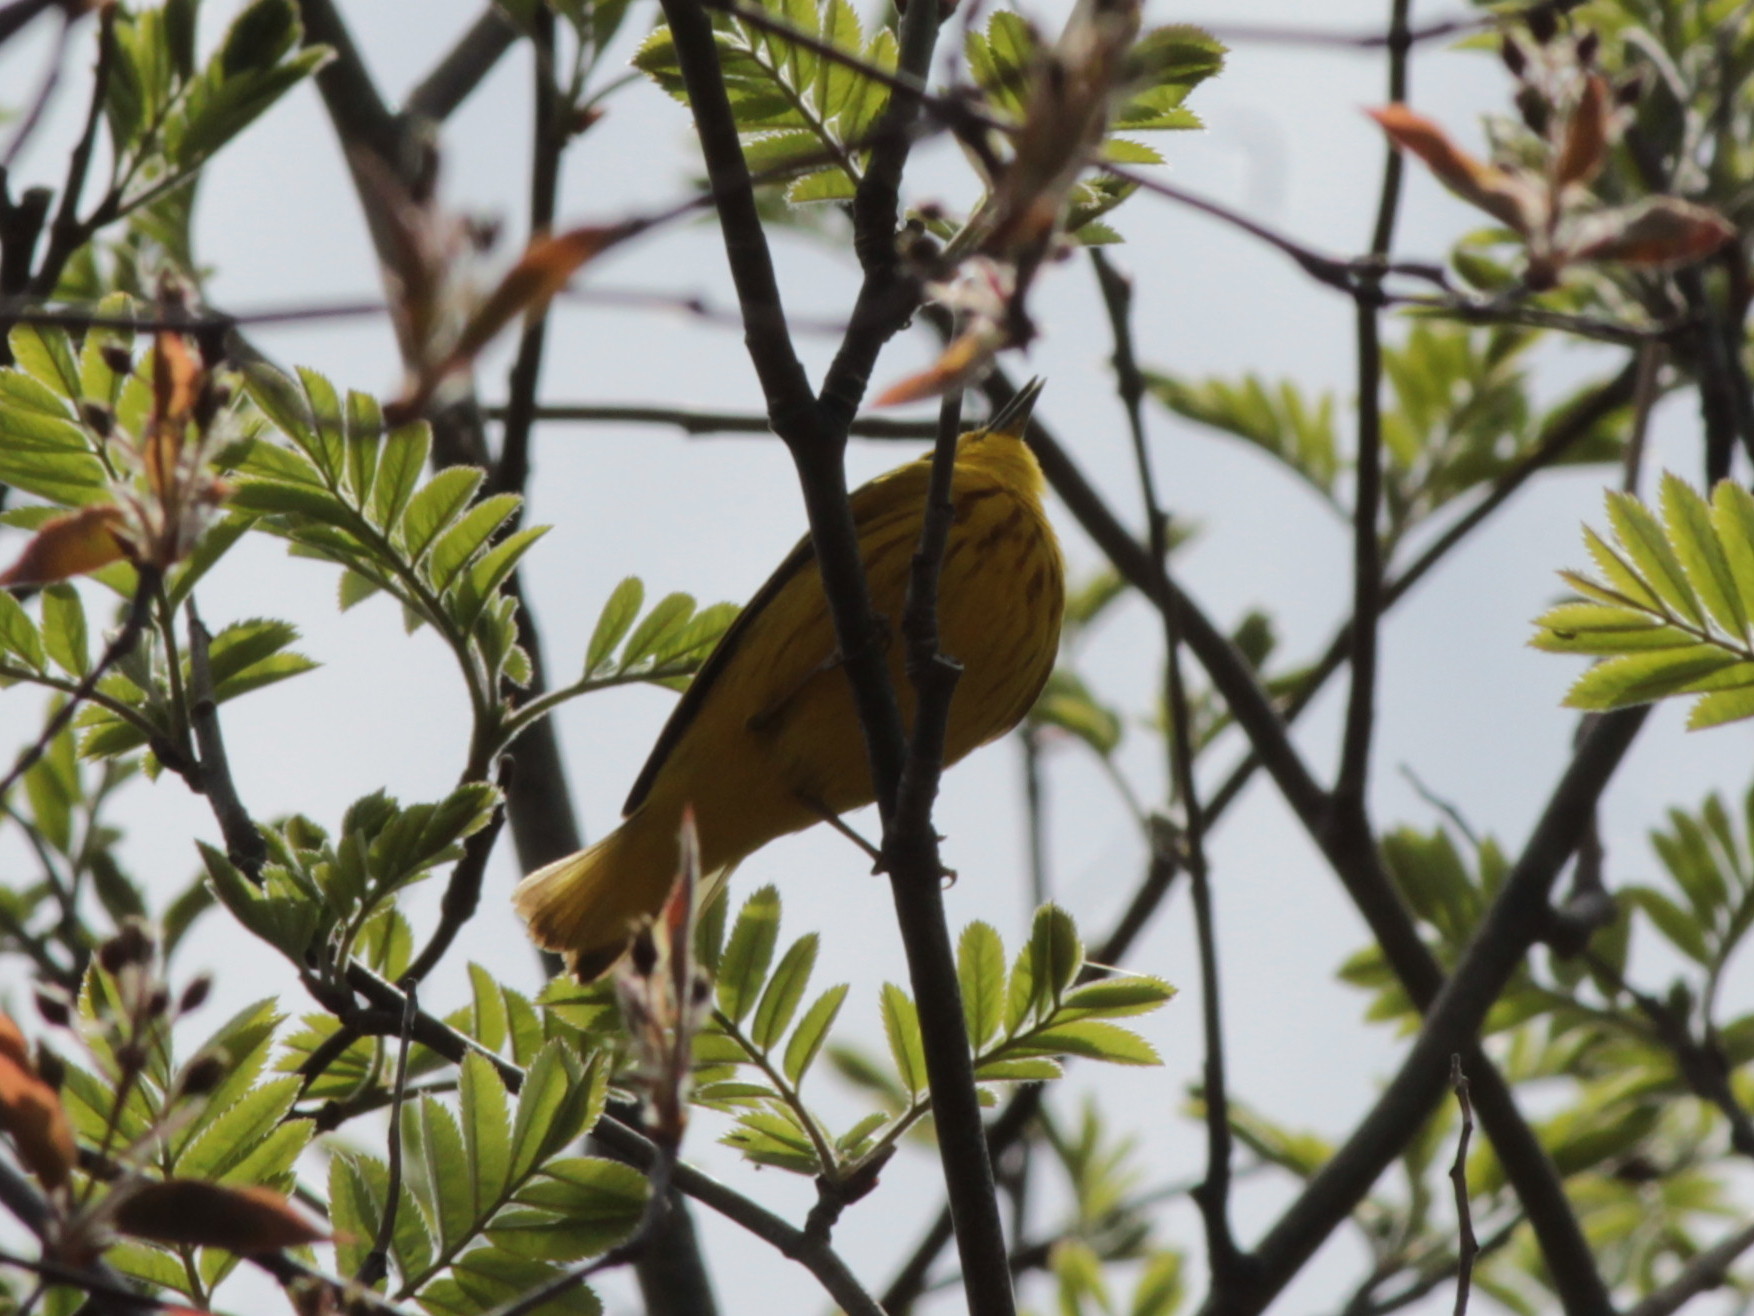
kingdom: Animalia
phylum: Chordata
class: Aves
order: Passeriformes
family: Parulidae
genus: Setophaga
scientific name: Setophaga petechia
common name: Yellow warbler
